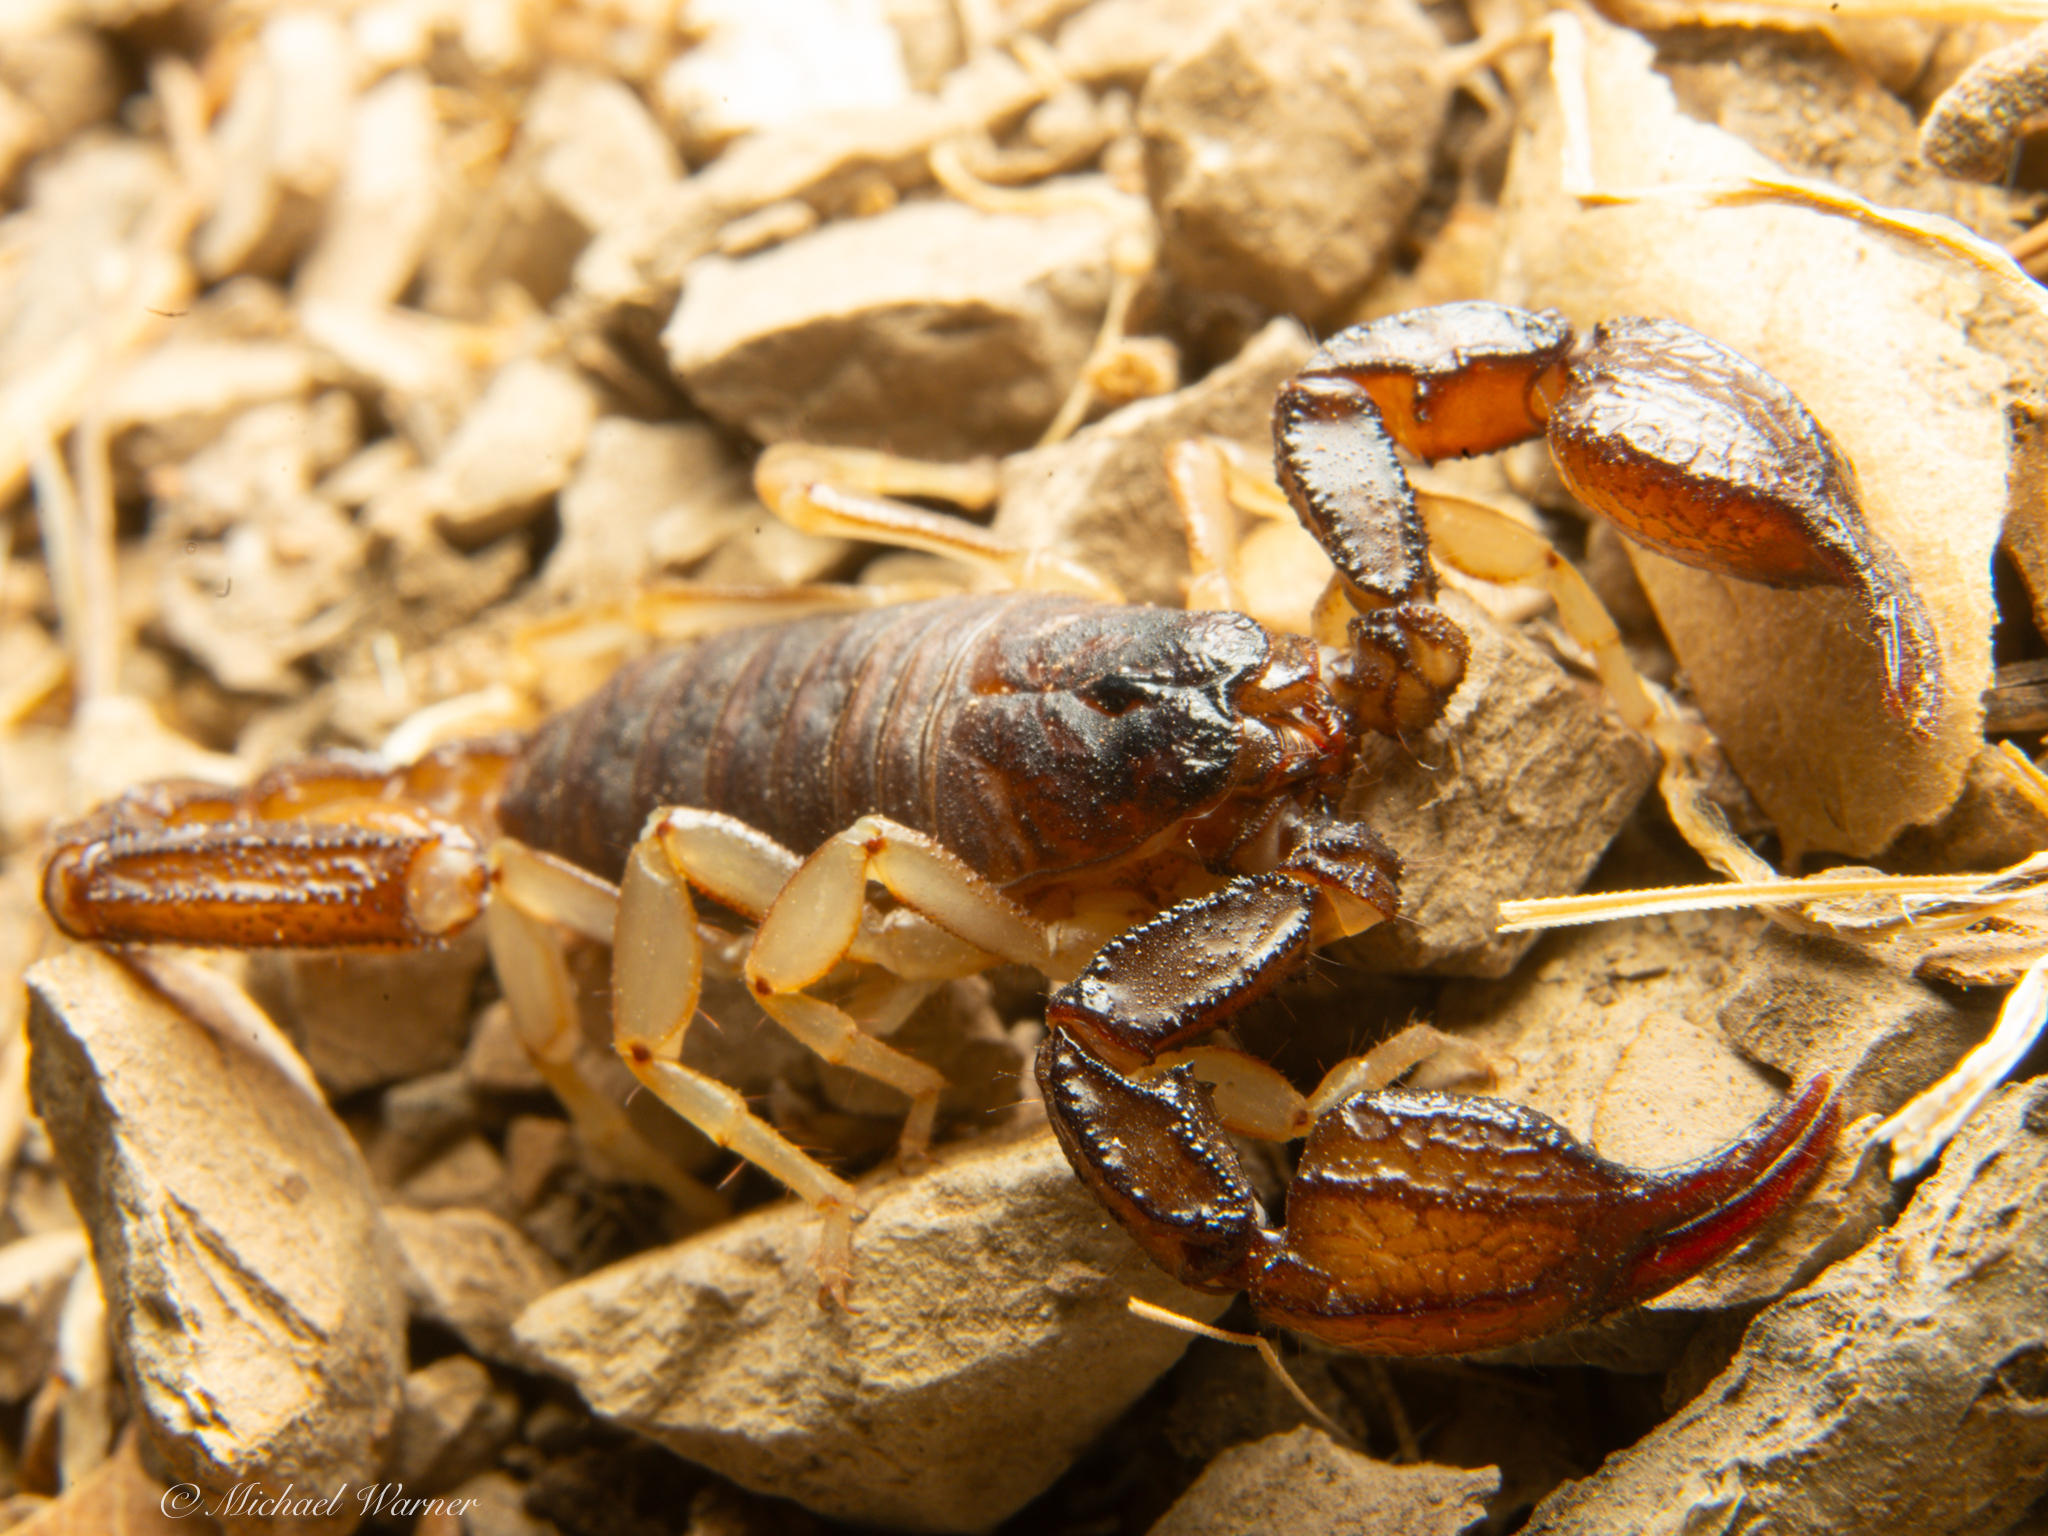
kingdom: Animalia
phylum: Arthropoda
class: Arachnida
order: Scorpiones
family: Chactidae
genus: Uroctonus
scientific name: Uroctonus mordax
